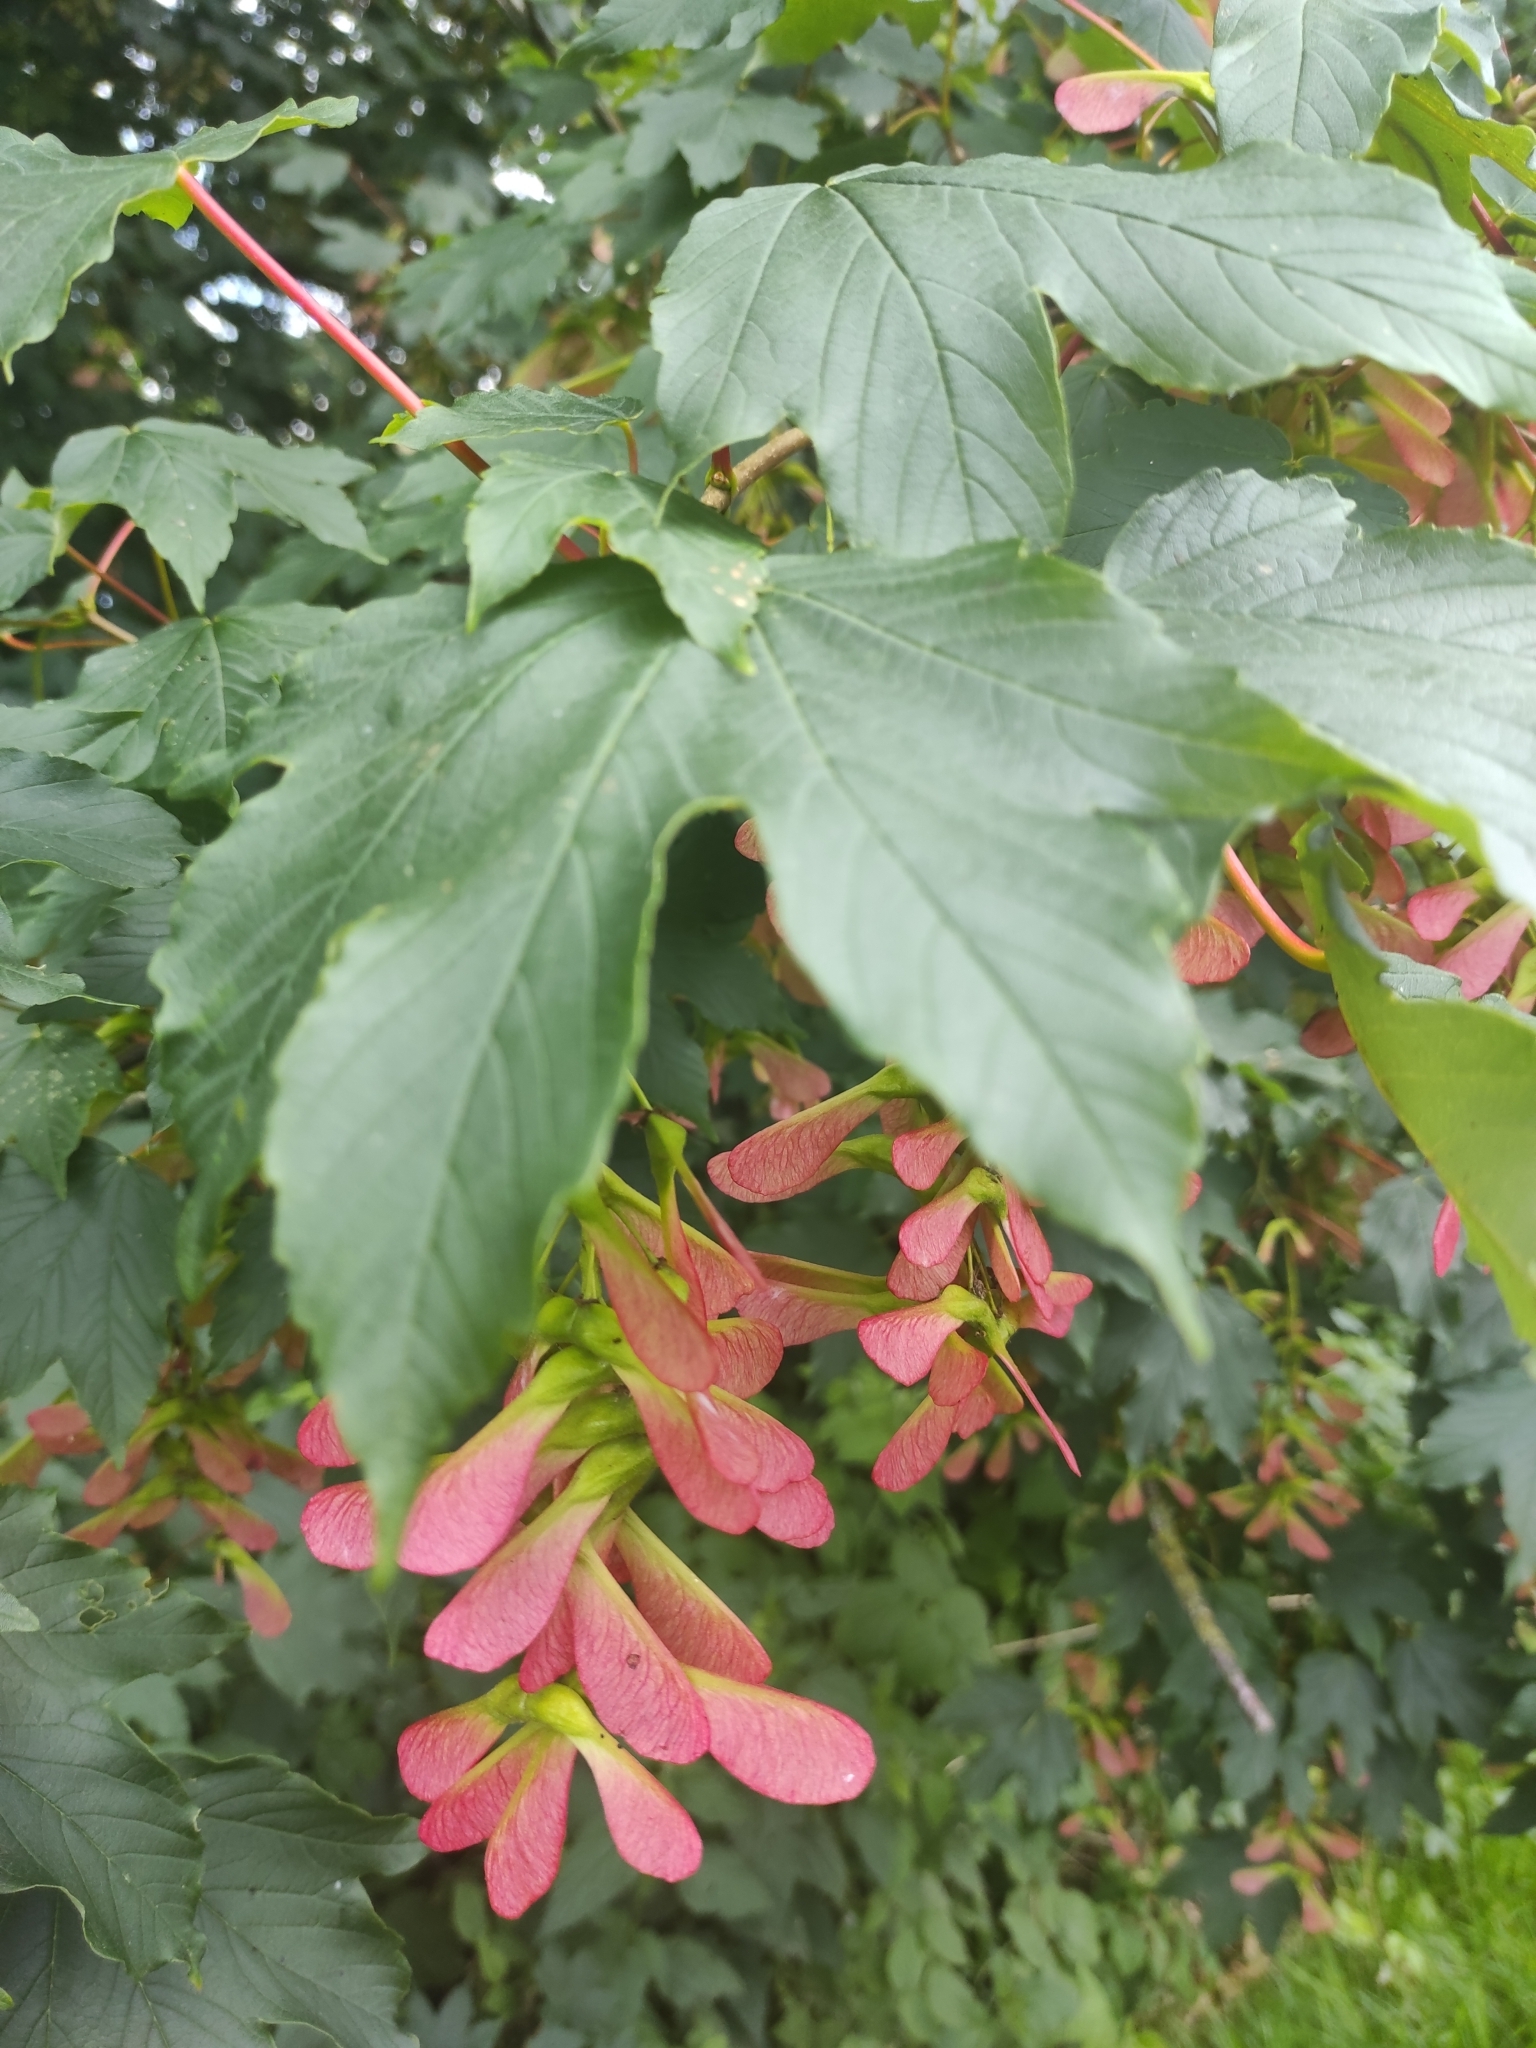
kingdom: Plantae
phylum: Tracheophyta
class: Magnoliopsida
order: Sapindales
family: Sapindaceae
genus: Acer
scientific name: Acer pseudoplatanus
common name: Sycamore
